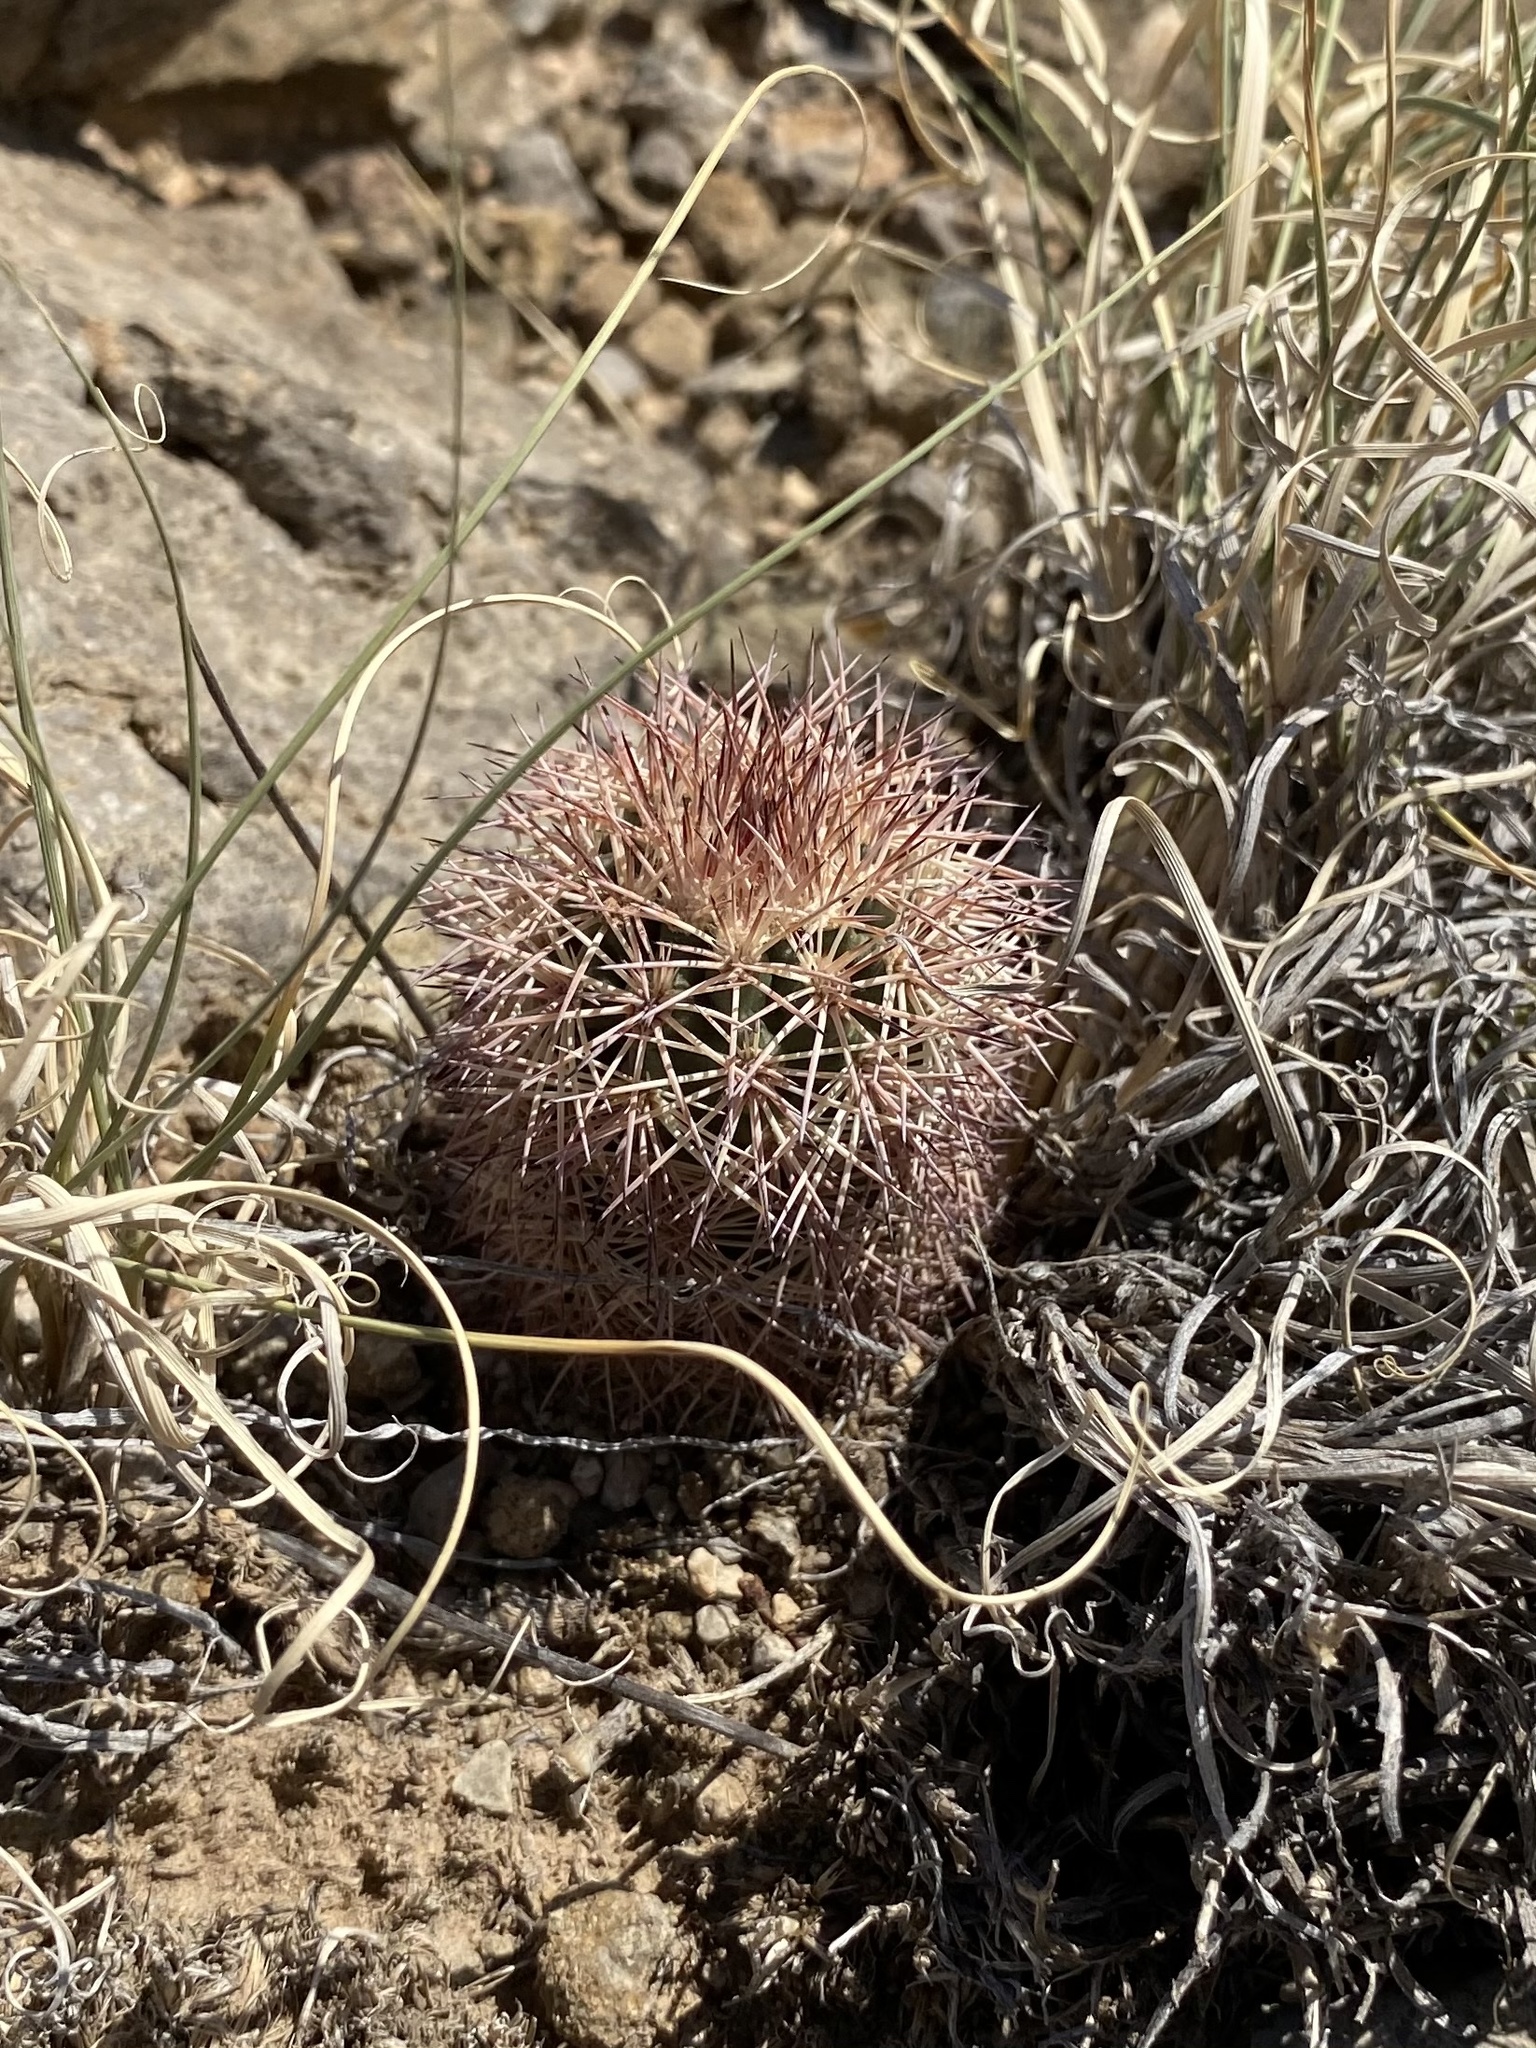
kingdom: Plantae
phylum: Tracheophyta
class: Magnoliopsida
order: Caryophyllales
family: Cactaceae
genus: Echinocereus
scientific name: Echinocereus dasyacanthus
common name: Spiny hedgehog cactus
